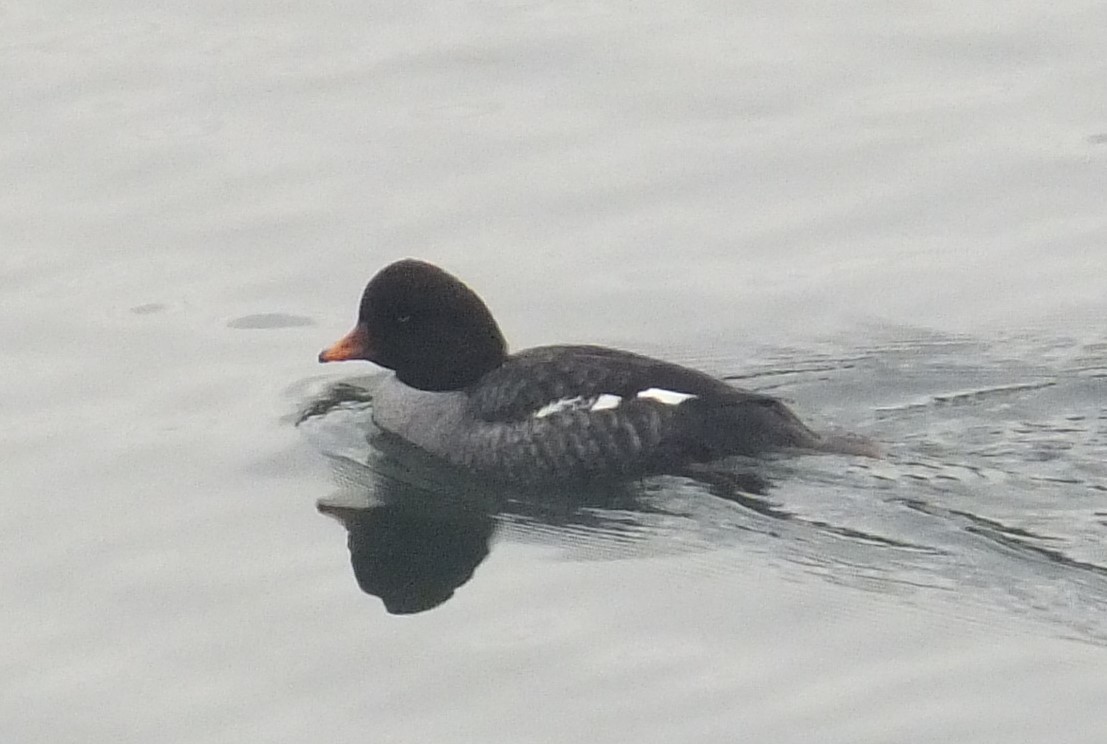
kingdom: Animalia
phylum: Chordata
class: Aves
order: Anseriformes
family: Anatidae
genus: Bucephala
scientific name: Bucephala islandica
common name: Barrow's goldeneye
